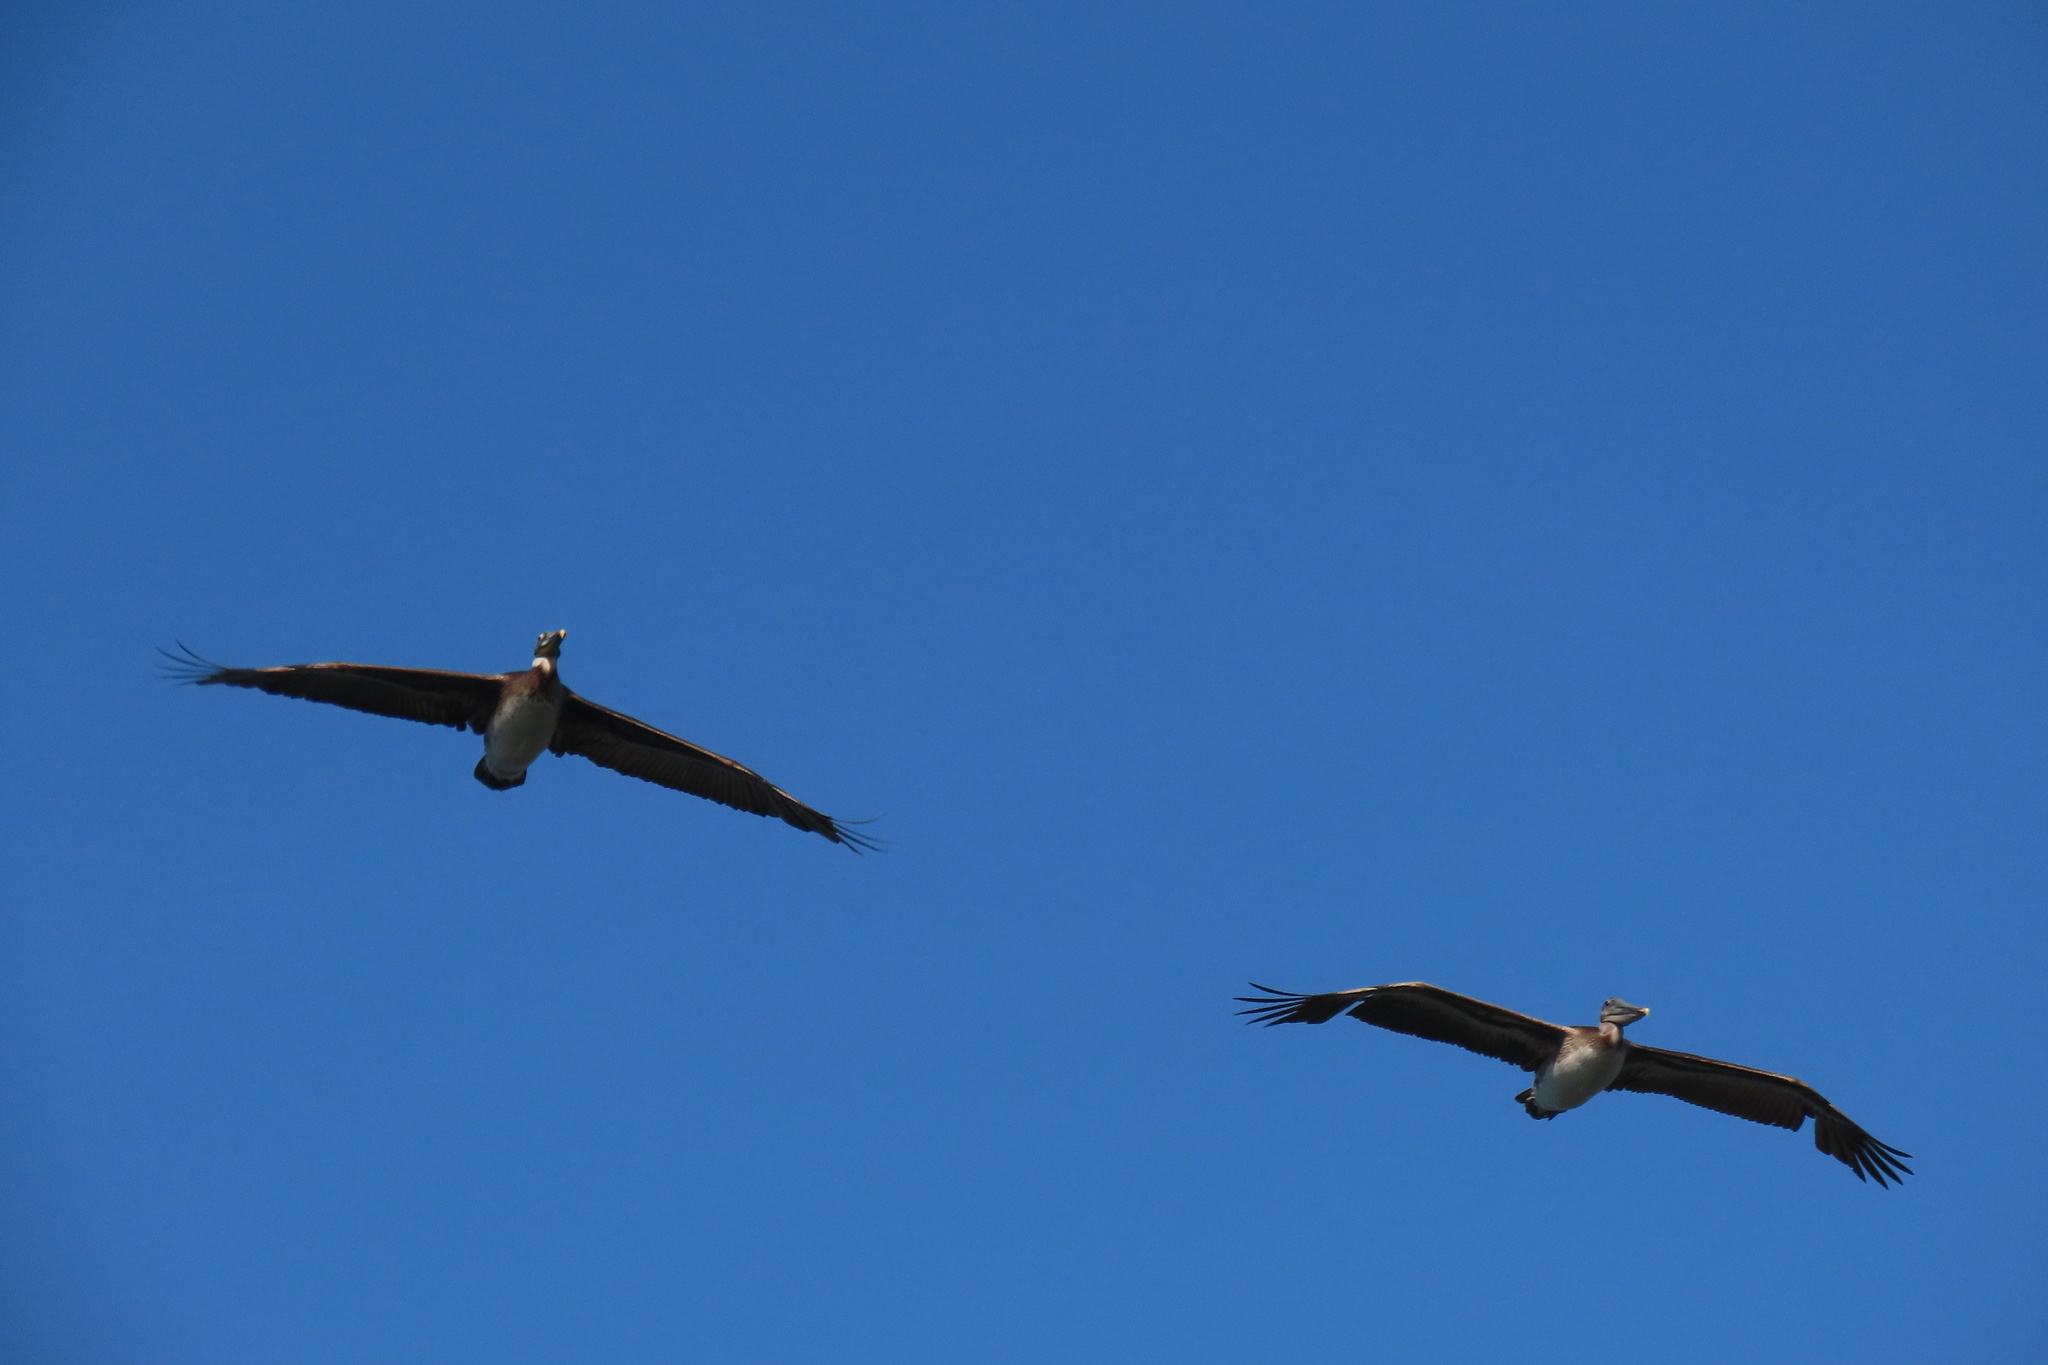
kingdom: Animalia
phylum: Chordata
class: Aves
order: Pelecaniformes
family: Pelecanidae
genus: Pelecanus
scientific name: Pelecanus occidentalis
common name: Brown pelican
